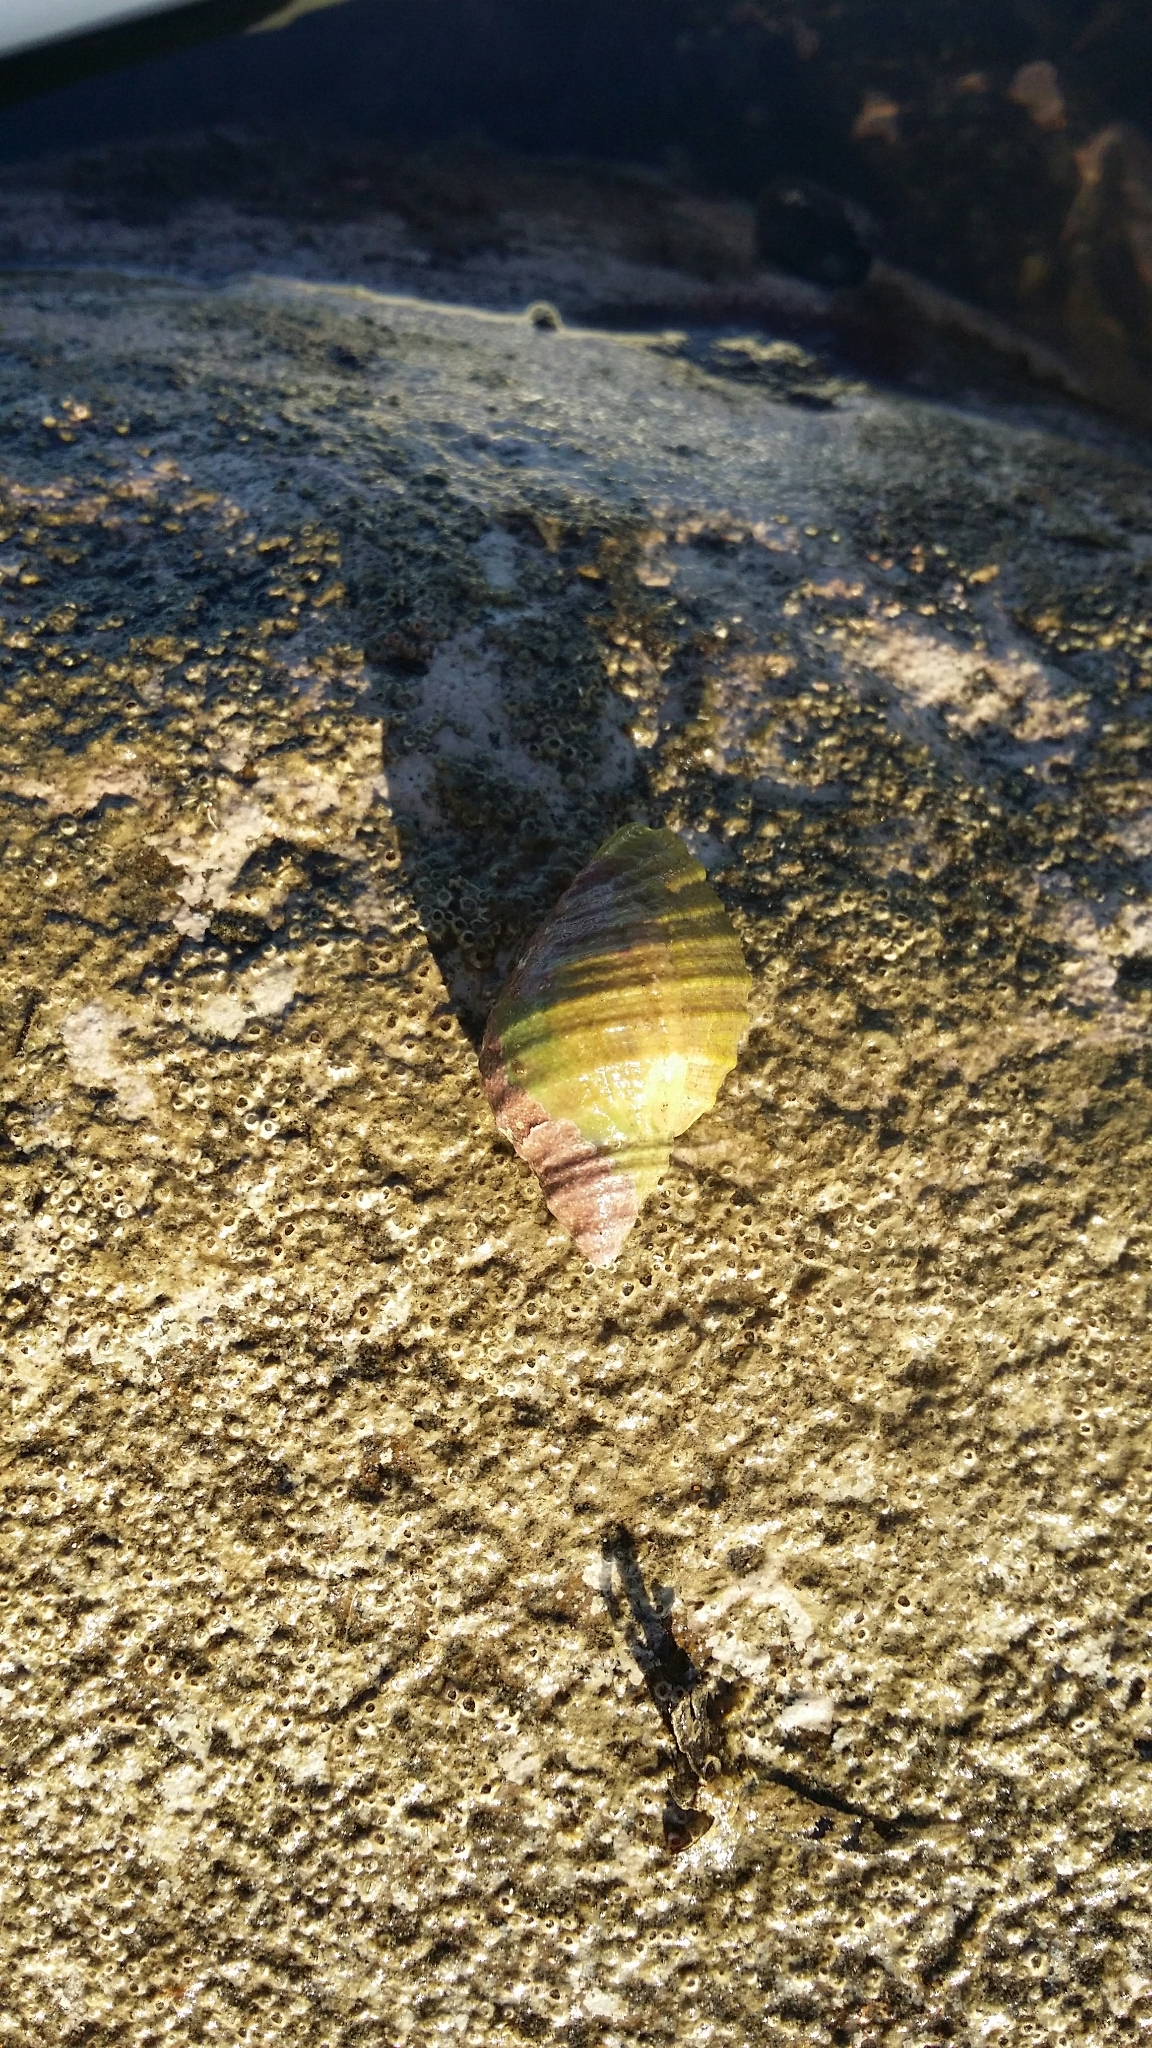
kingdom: Animalia
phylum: Mollusca
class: Gastropoda
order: Neogastropoda
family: Muricidae
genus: Dicathais
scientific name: Dicathais orbita
